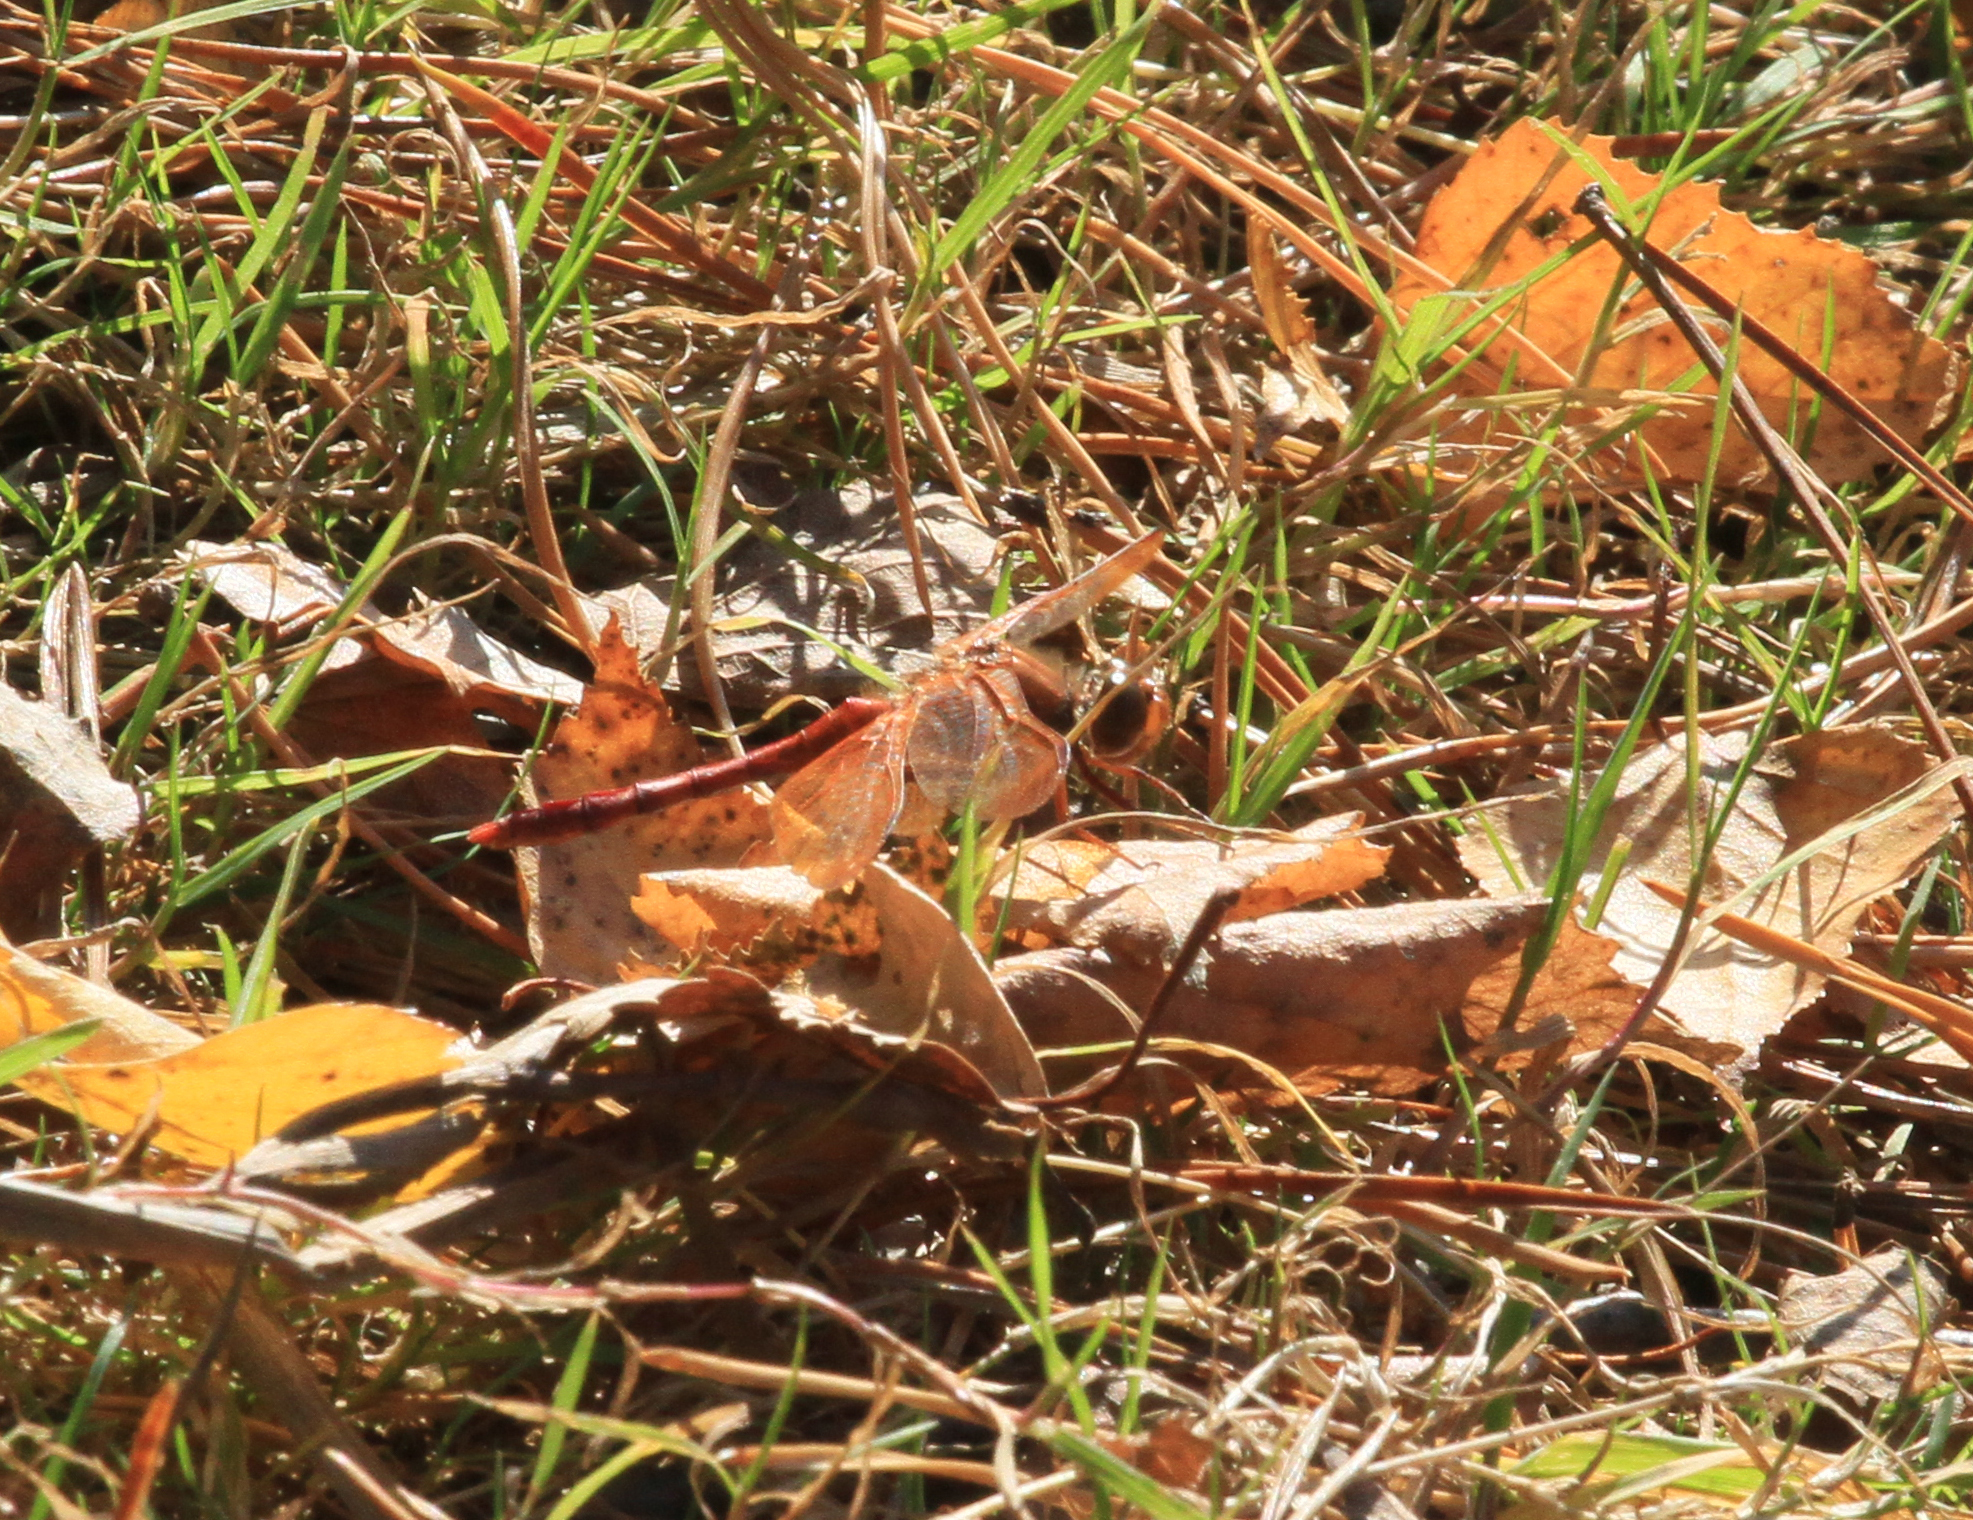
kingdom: Animalia
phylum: Arthropoda
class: Insecta
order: Odonata
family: Libellulidae
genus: Sympetrum
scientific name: Sympetrum croceolum
